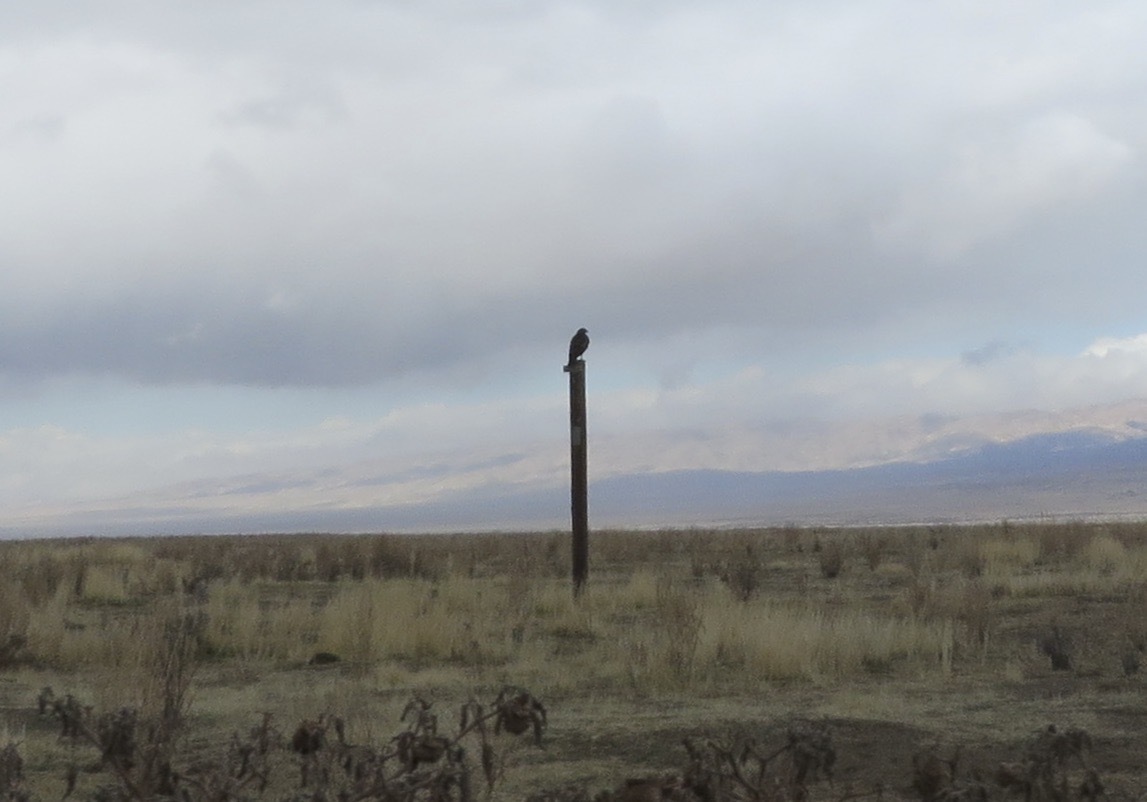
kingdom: Animalia
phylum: Chordata
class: Aves
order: Accipitriformes
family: Accipitridae
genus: Buteo
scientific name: Buteo jamaicensis
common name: Red-tailed hawk
